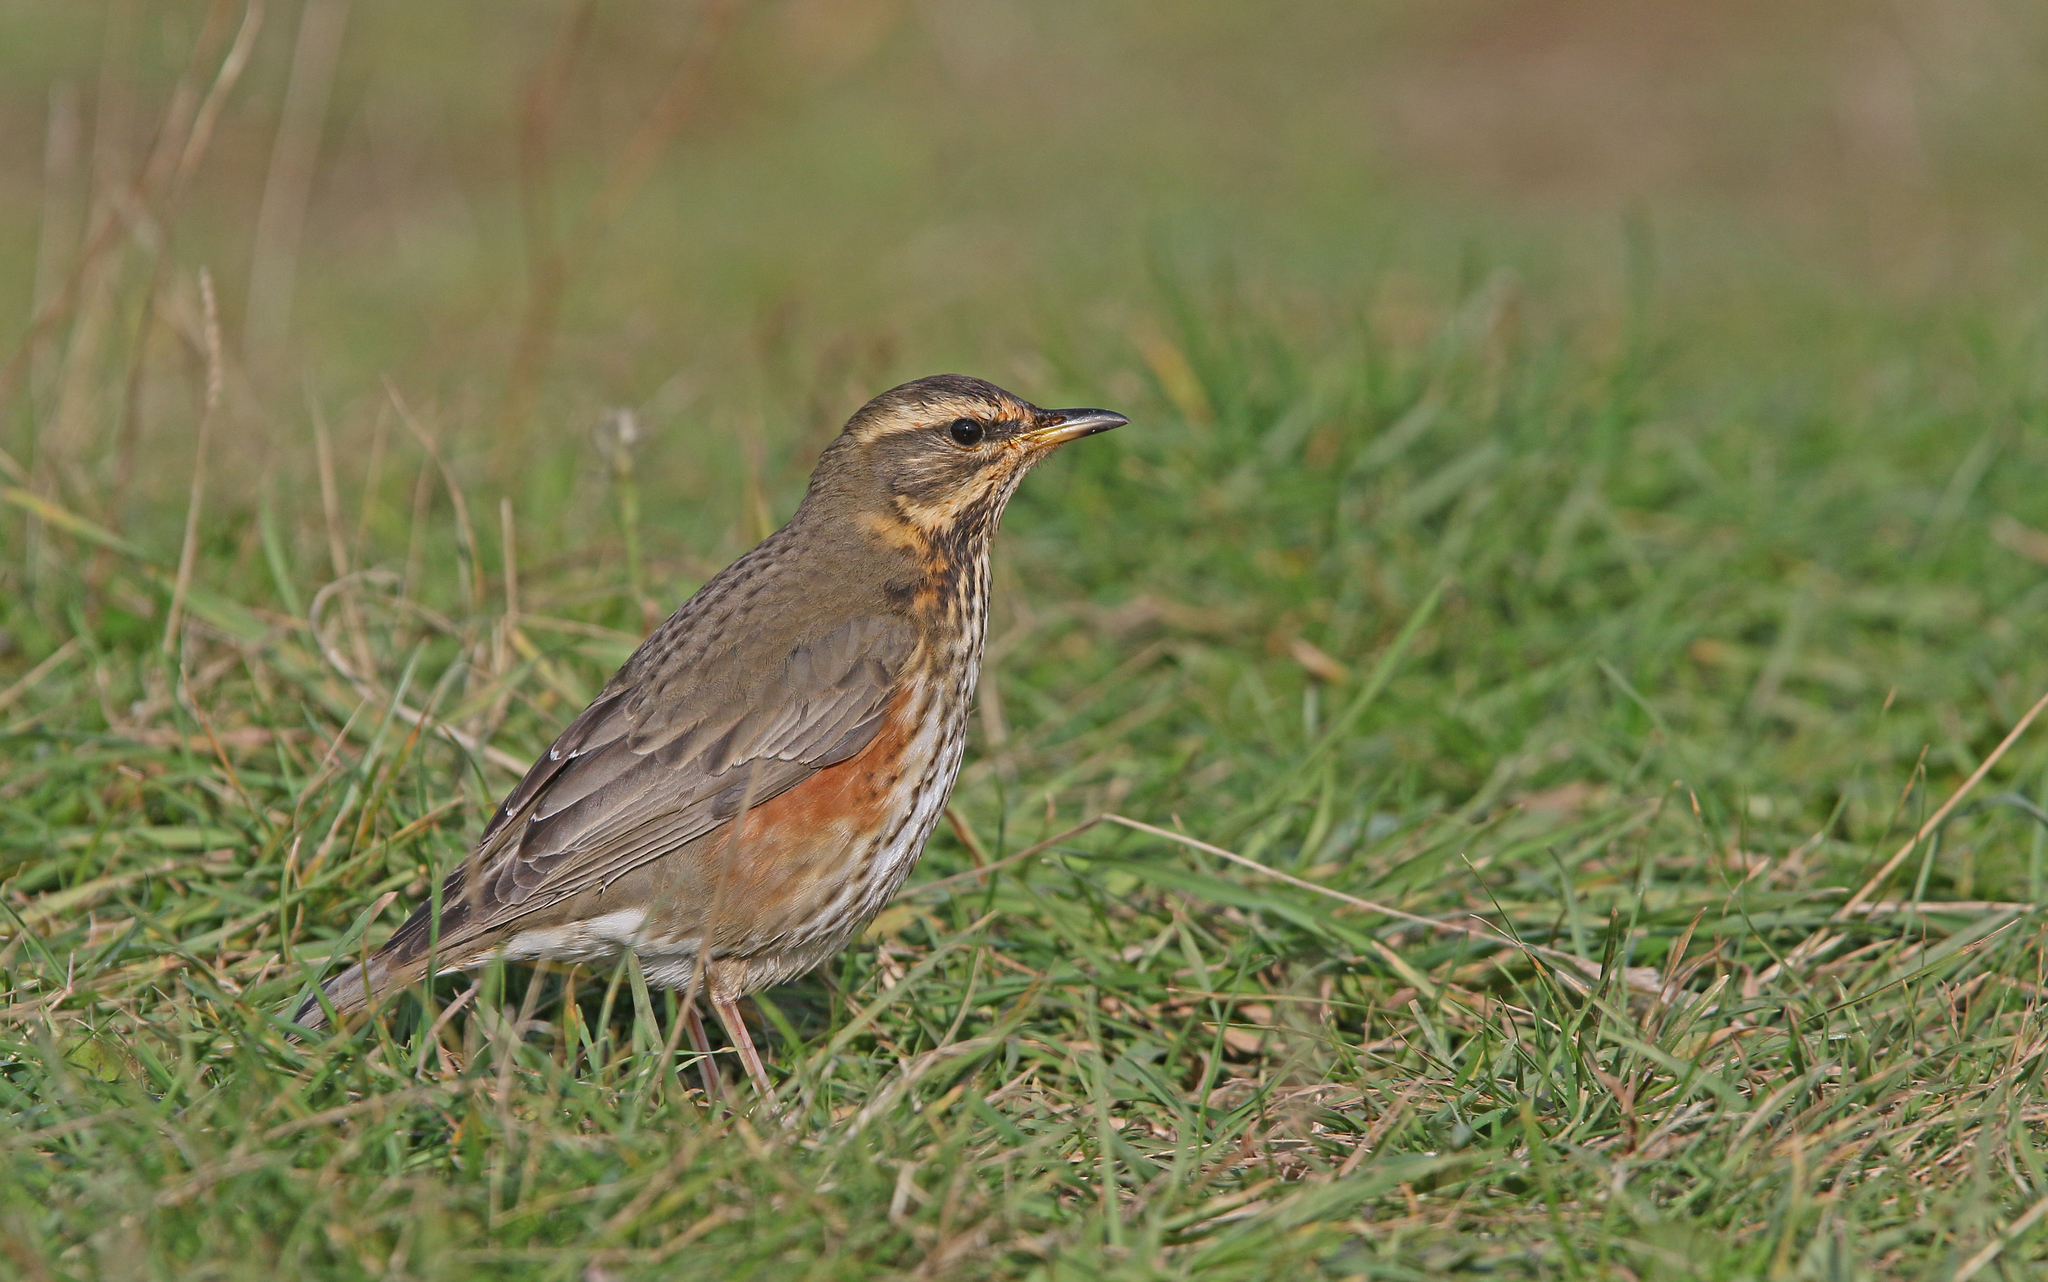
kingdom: Animalia
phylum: Chordata
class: Aves
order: Passeriformes
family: Turdidae
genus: Turdus
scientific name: Turdus iliacus
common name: Redwing
